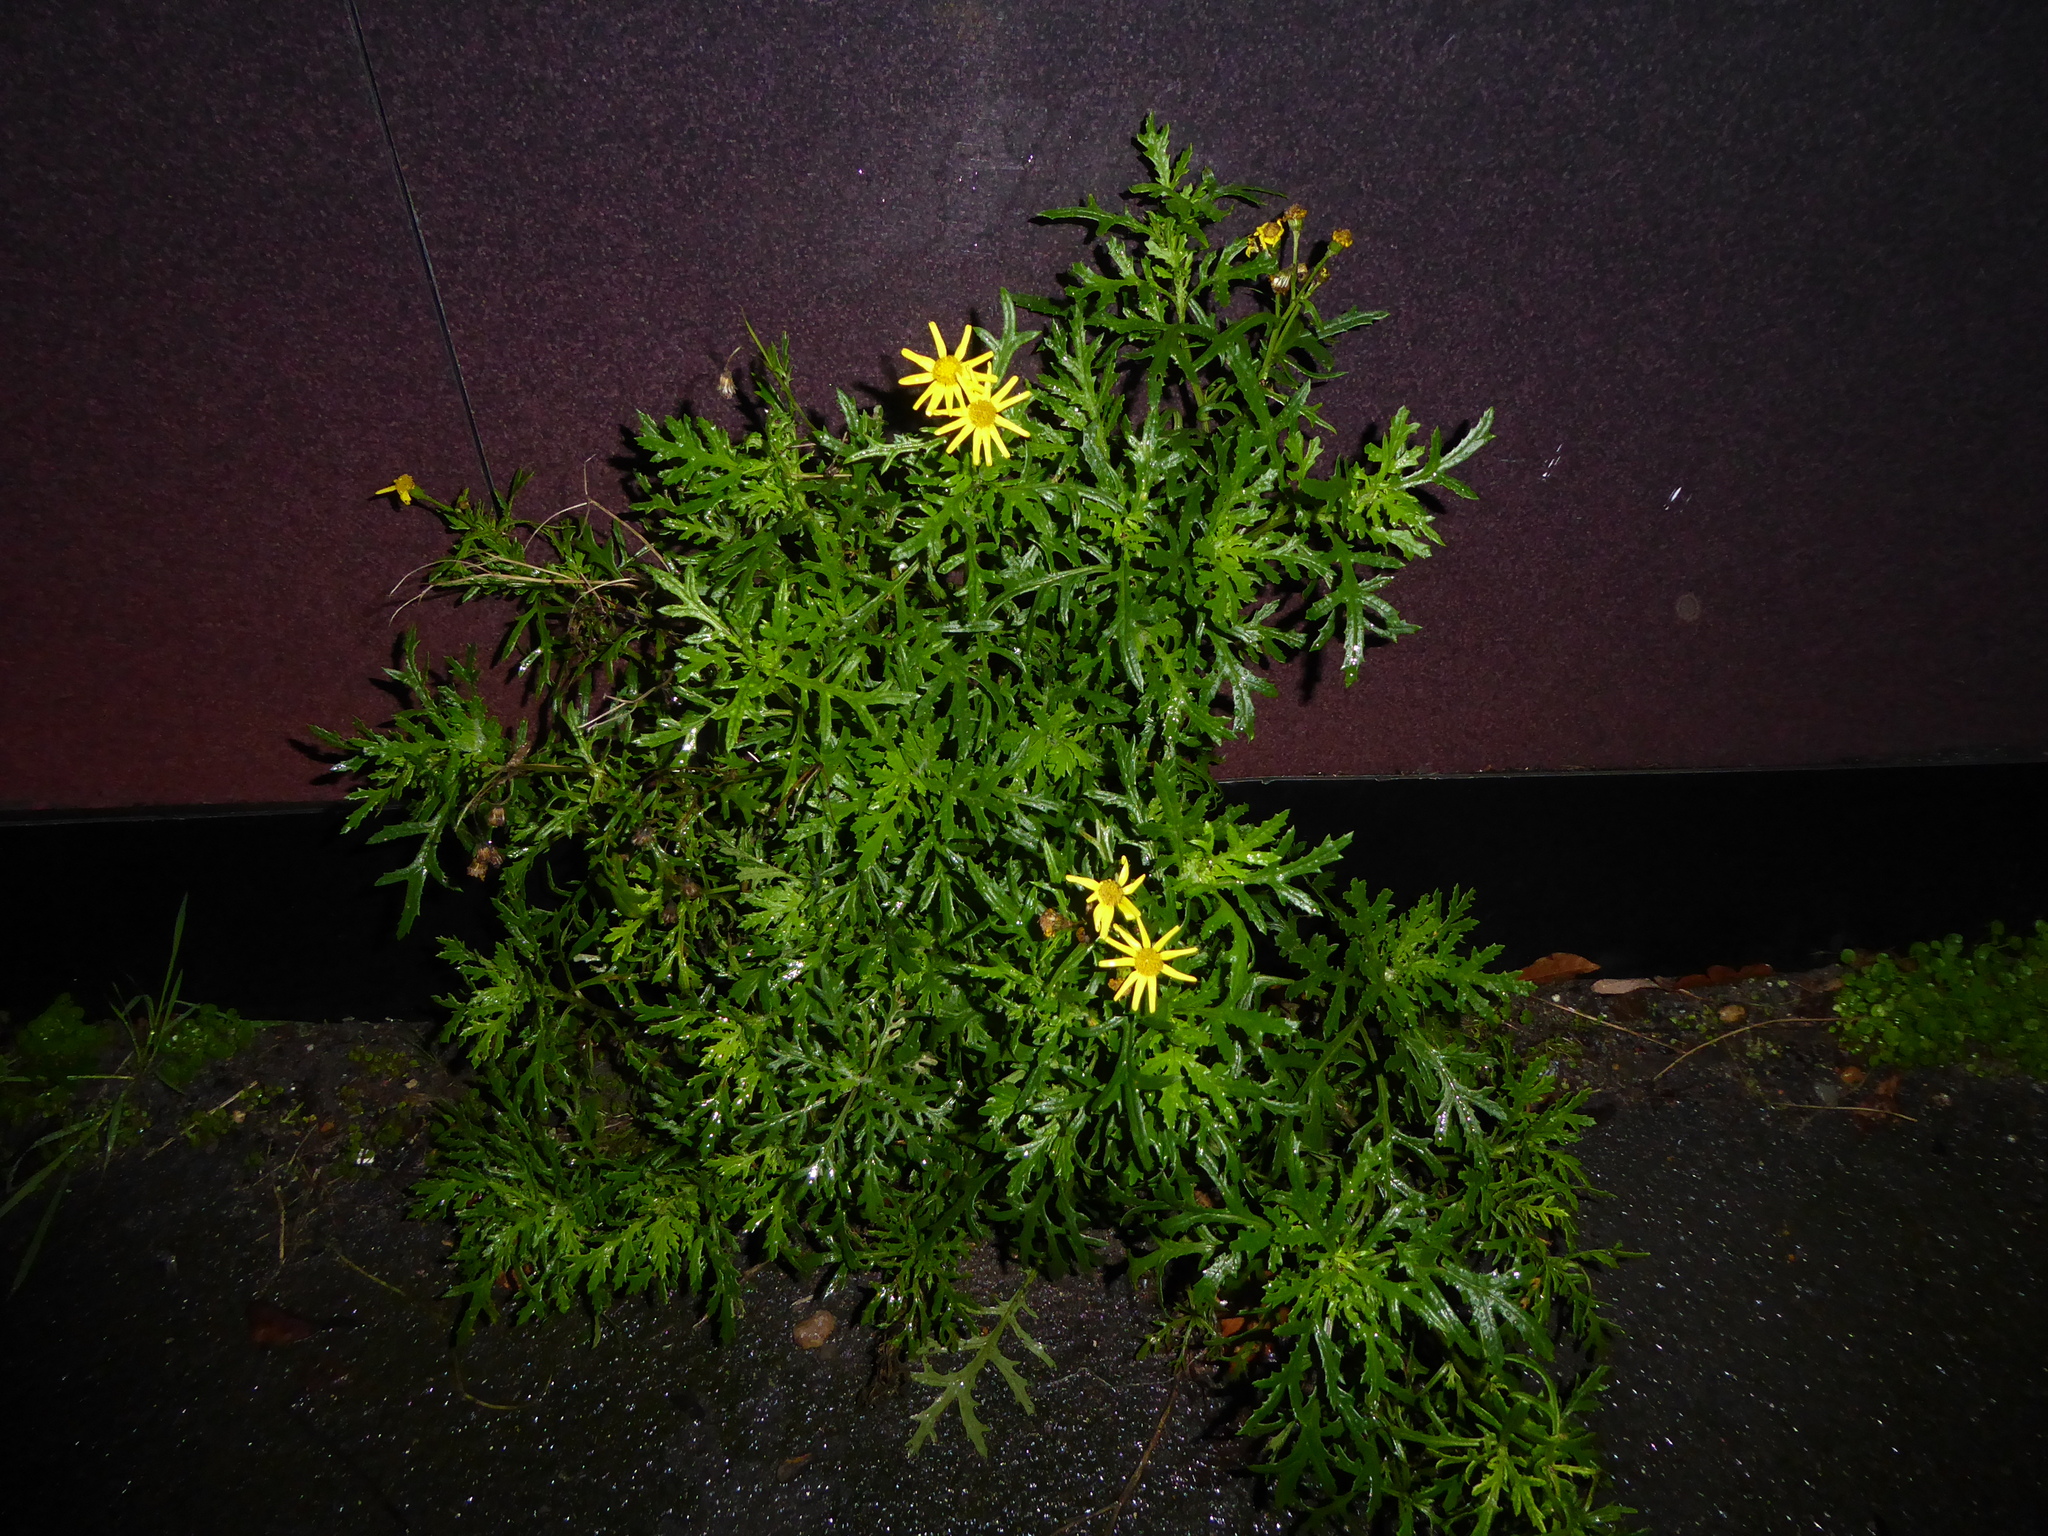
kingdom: Plantae
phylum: Tracheophyta
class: Magnoliopsida
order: Asterales
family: Asteraceae
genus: Senecio
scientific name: Senecio squalidus
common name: Oxford ragwort
